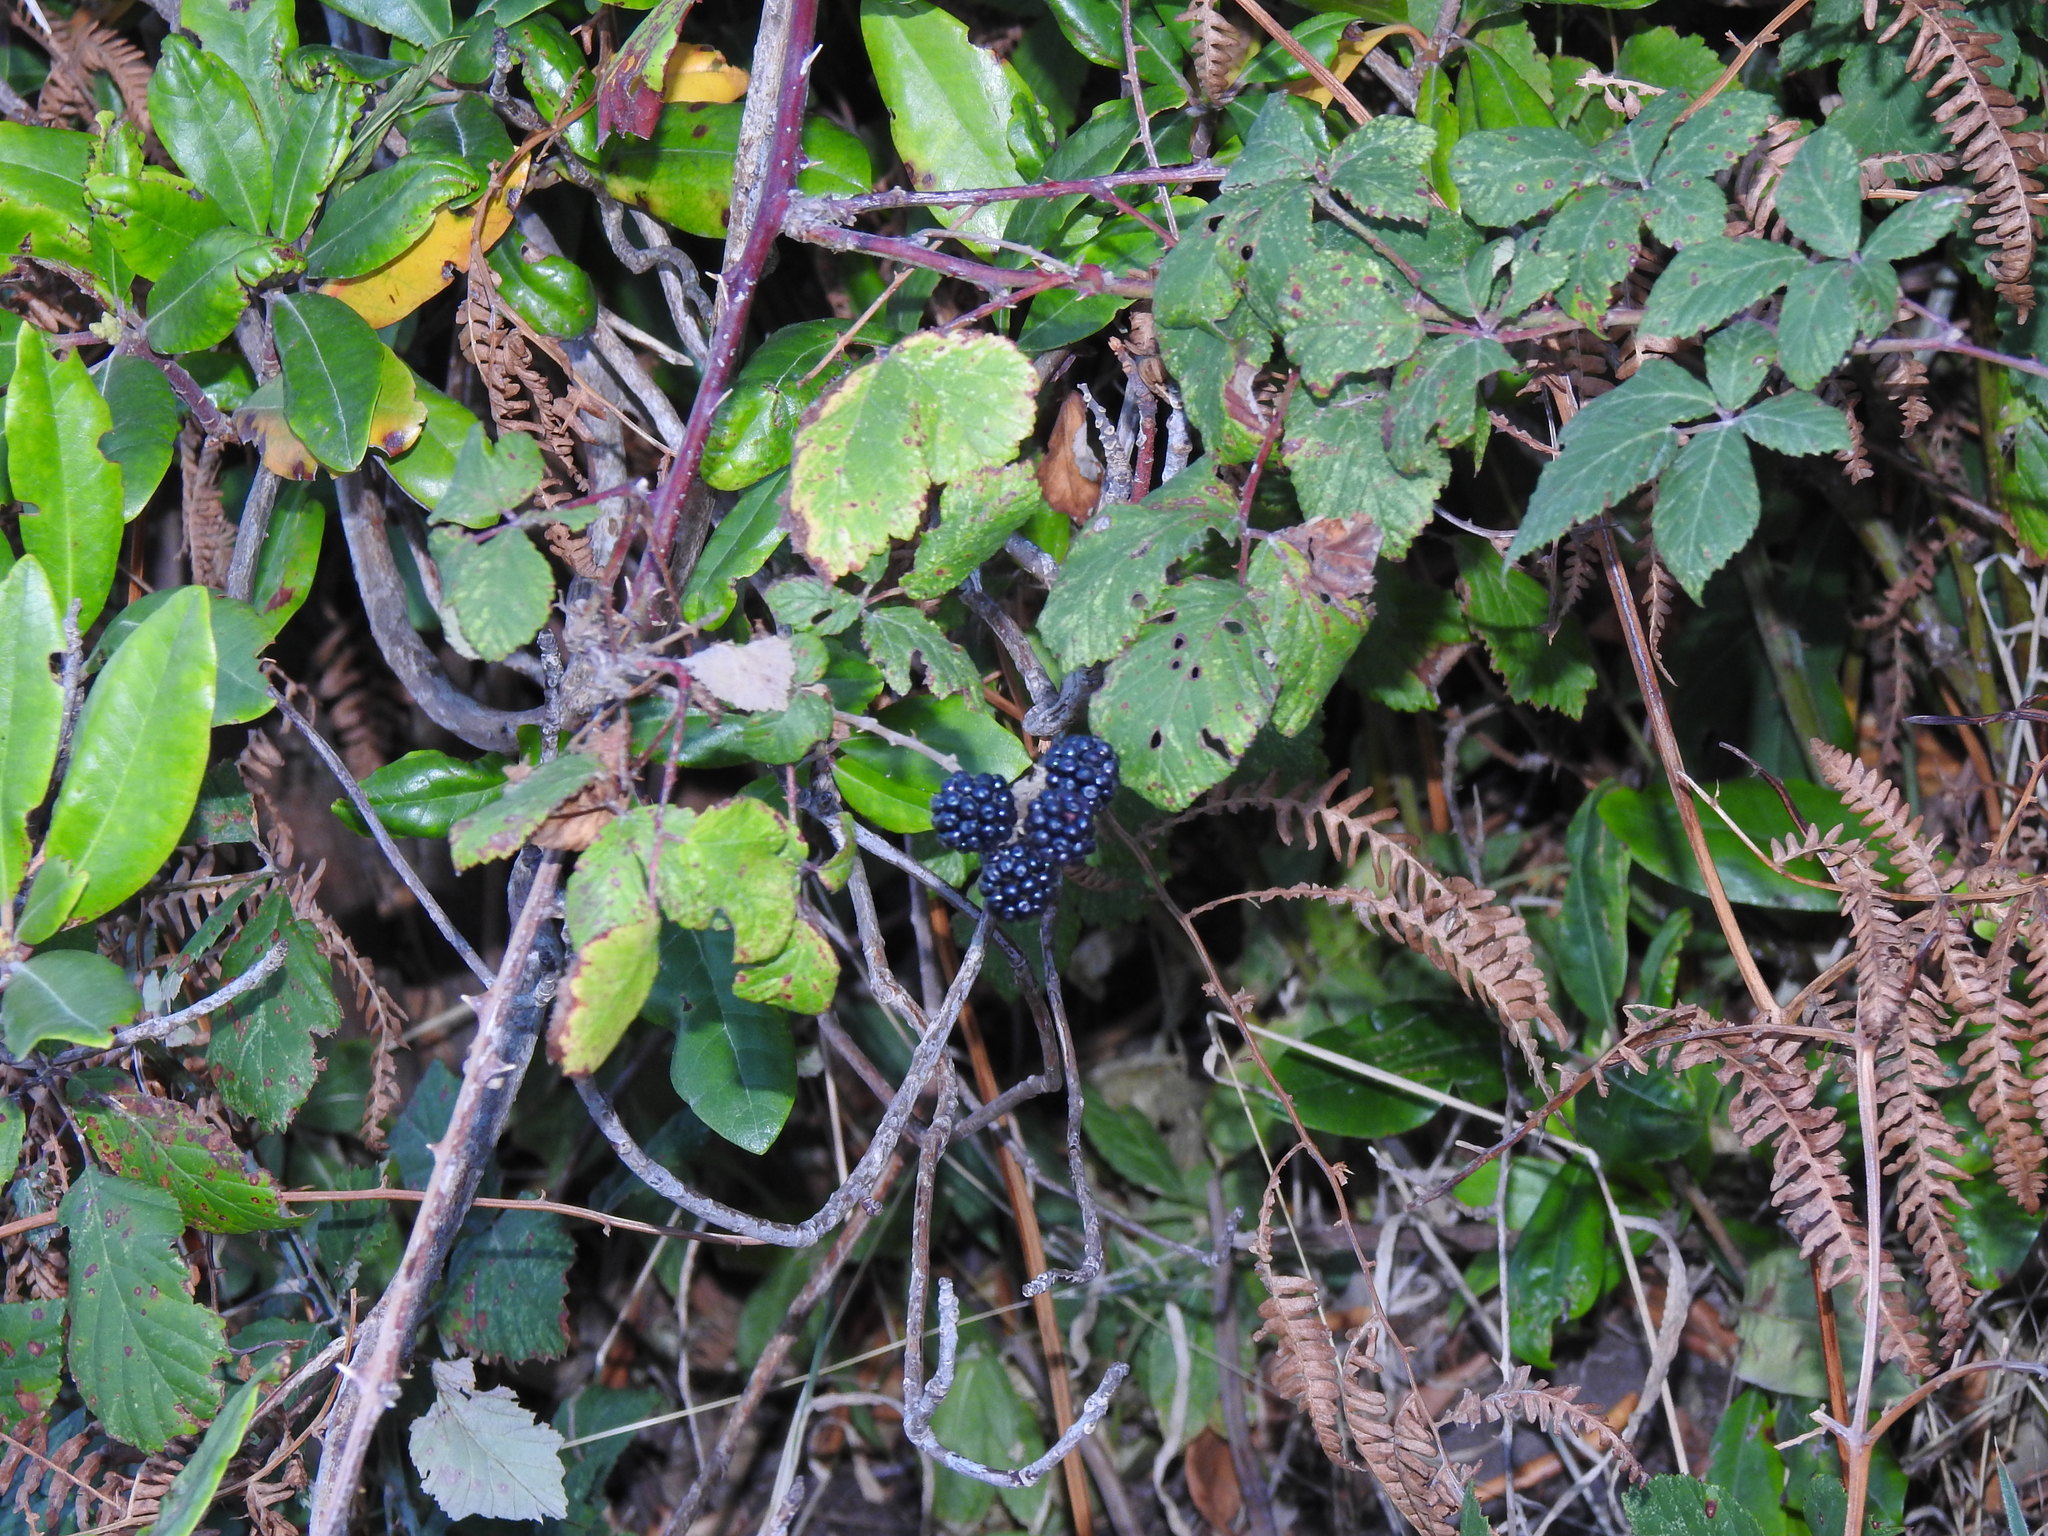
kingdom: Plantae
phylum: Tracheophyta
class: Magnoliopsida
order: Rosales
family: Rosaceae
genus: Rubus
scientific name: Rubus ulmifolius
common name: Elmleaf blackberry
